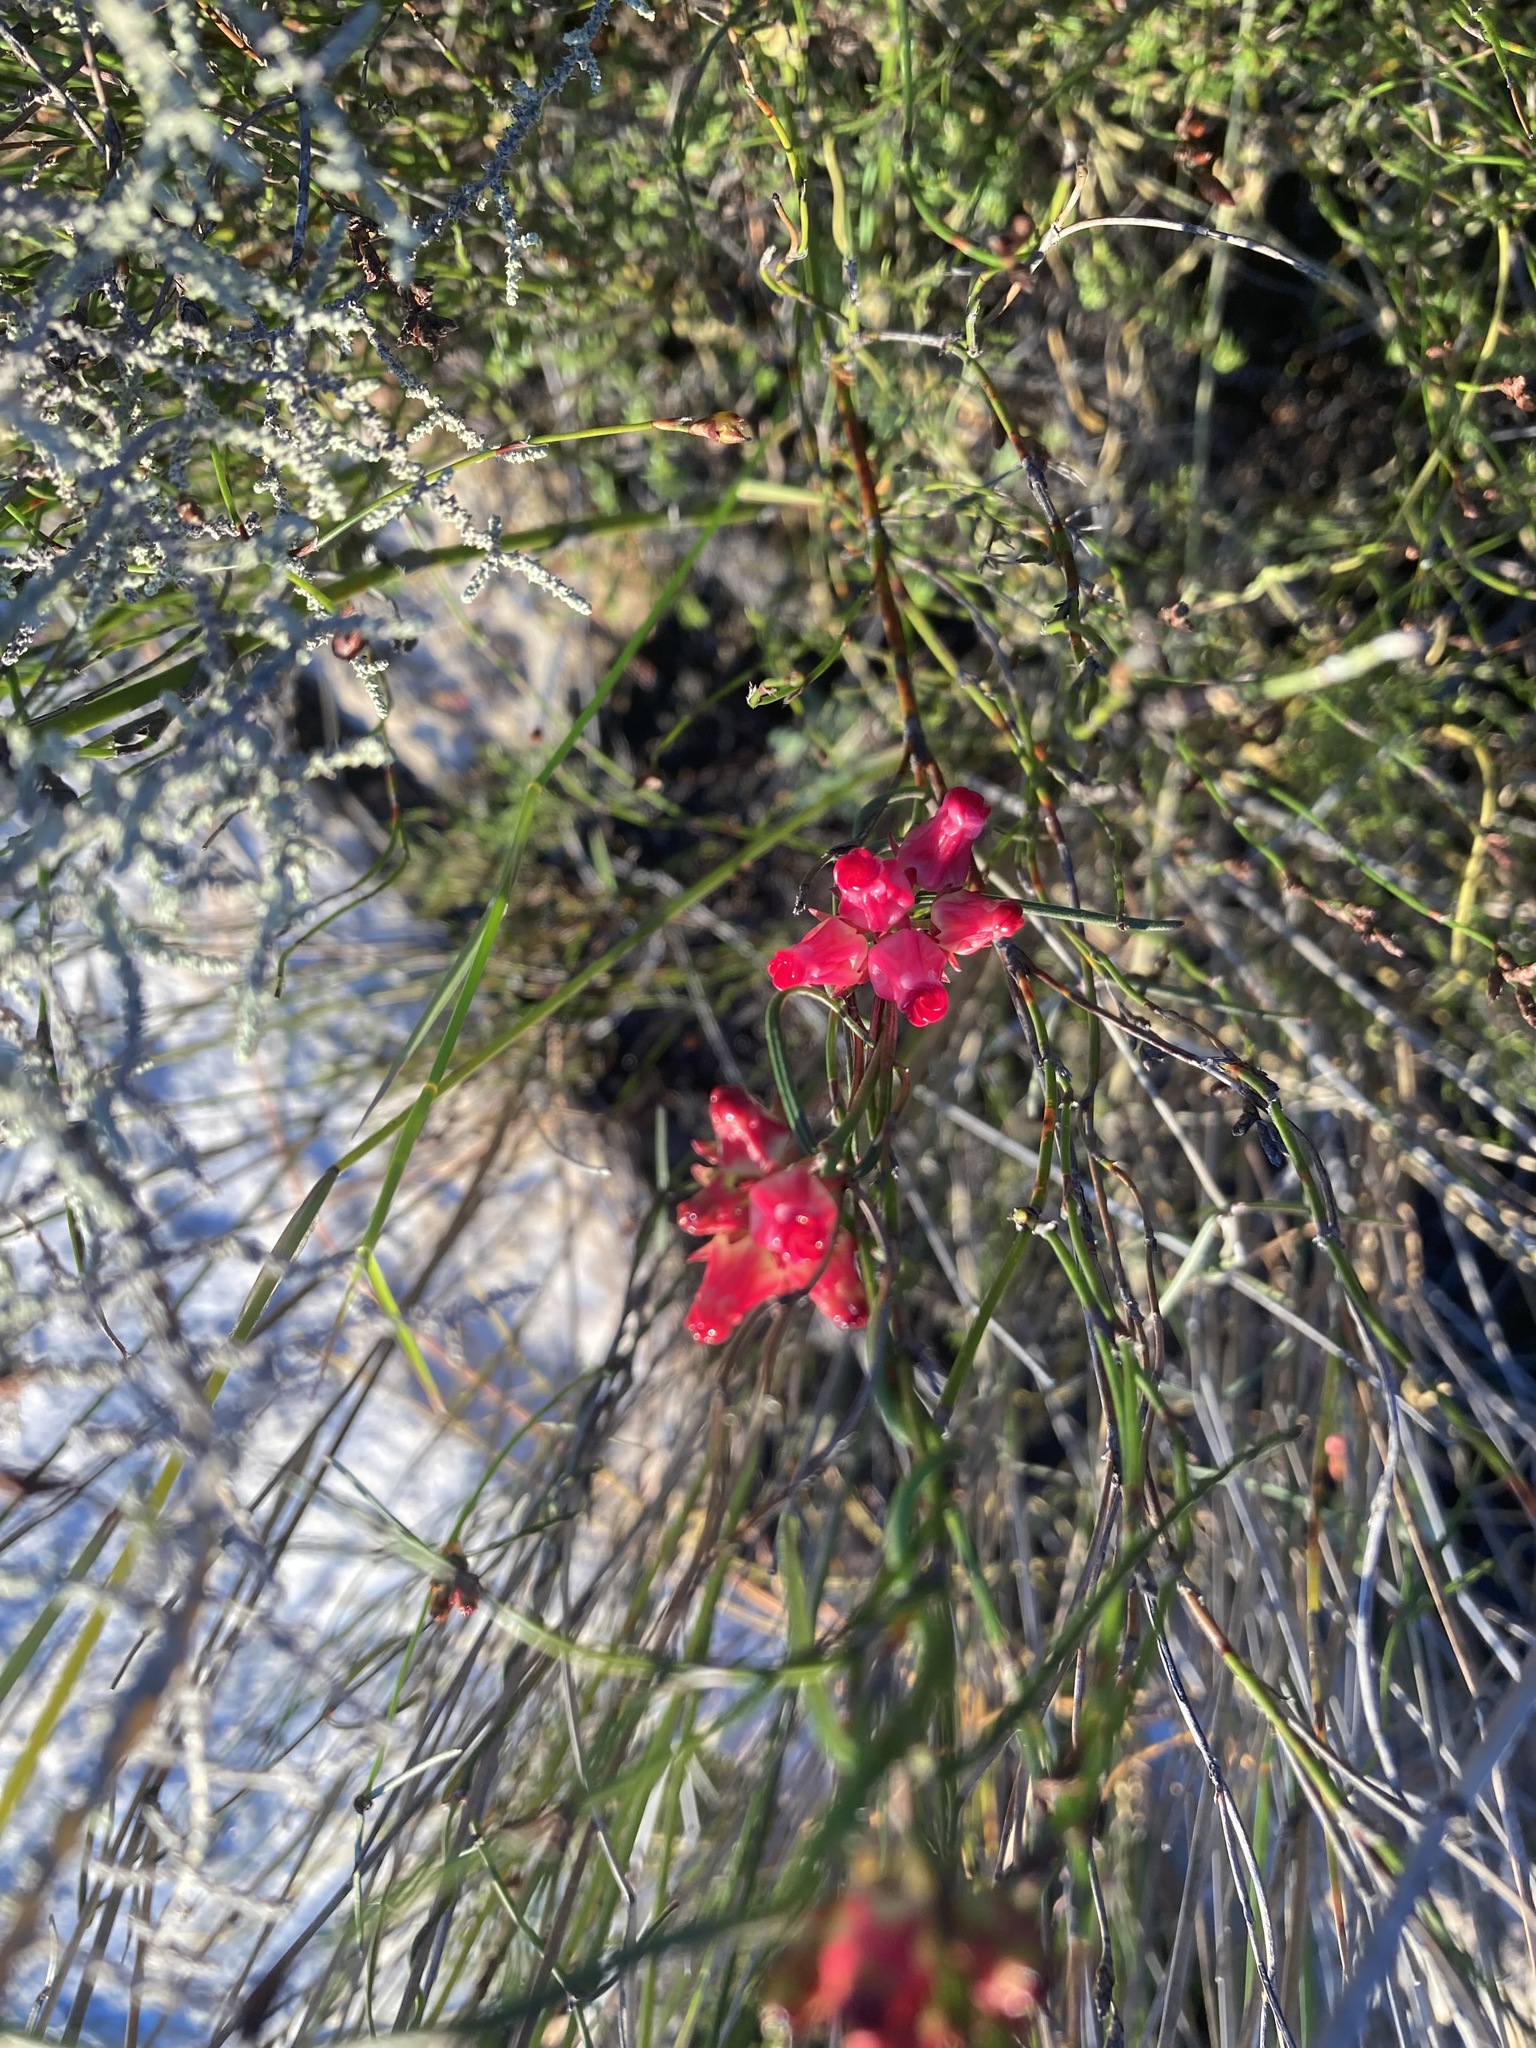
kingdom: Plantae
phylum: Tracheophyta
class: Magnoliopsida
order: Gentianales
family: Apocynaceae
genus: Microloma
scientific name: Microloma tenuifolium
